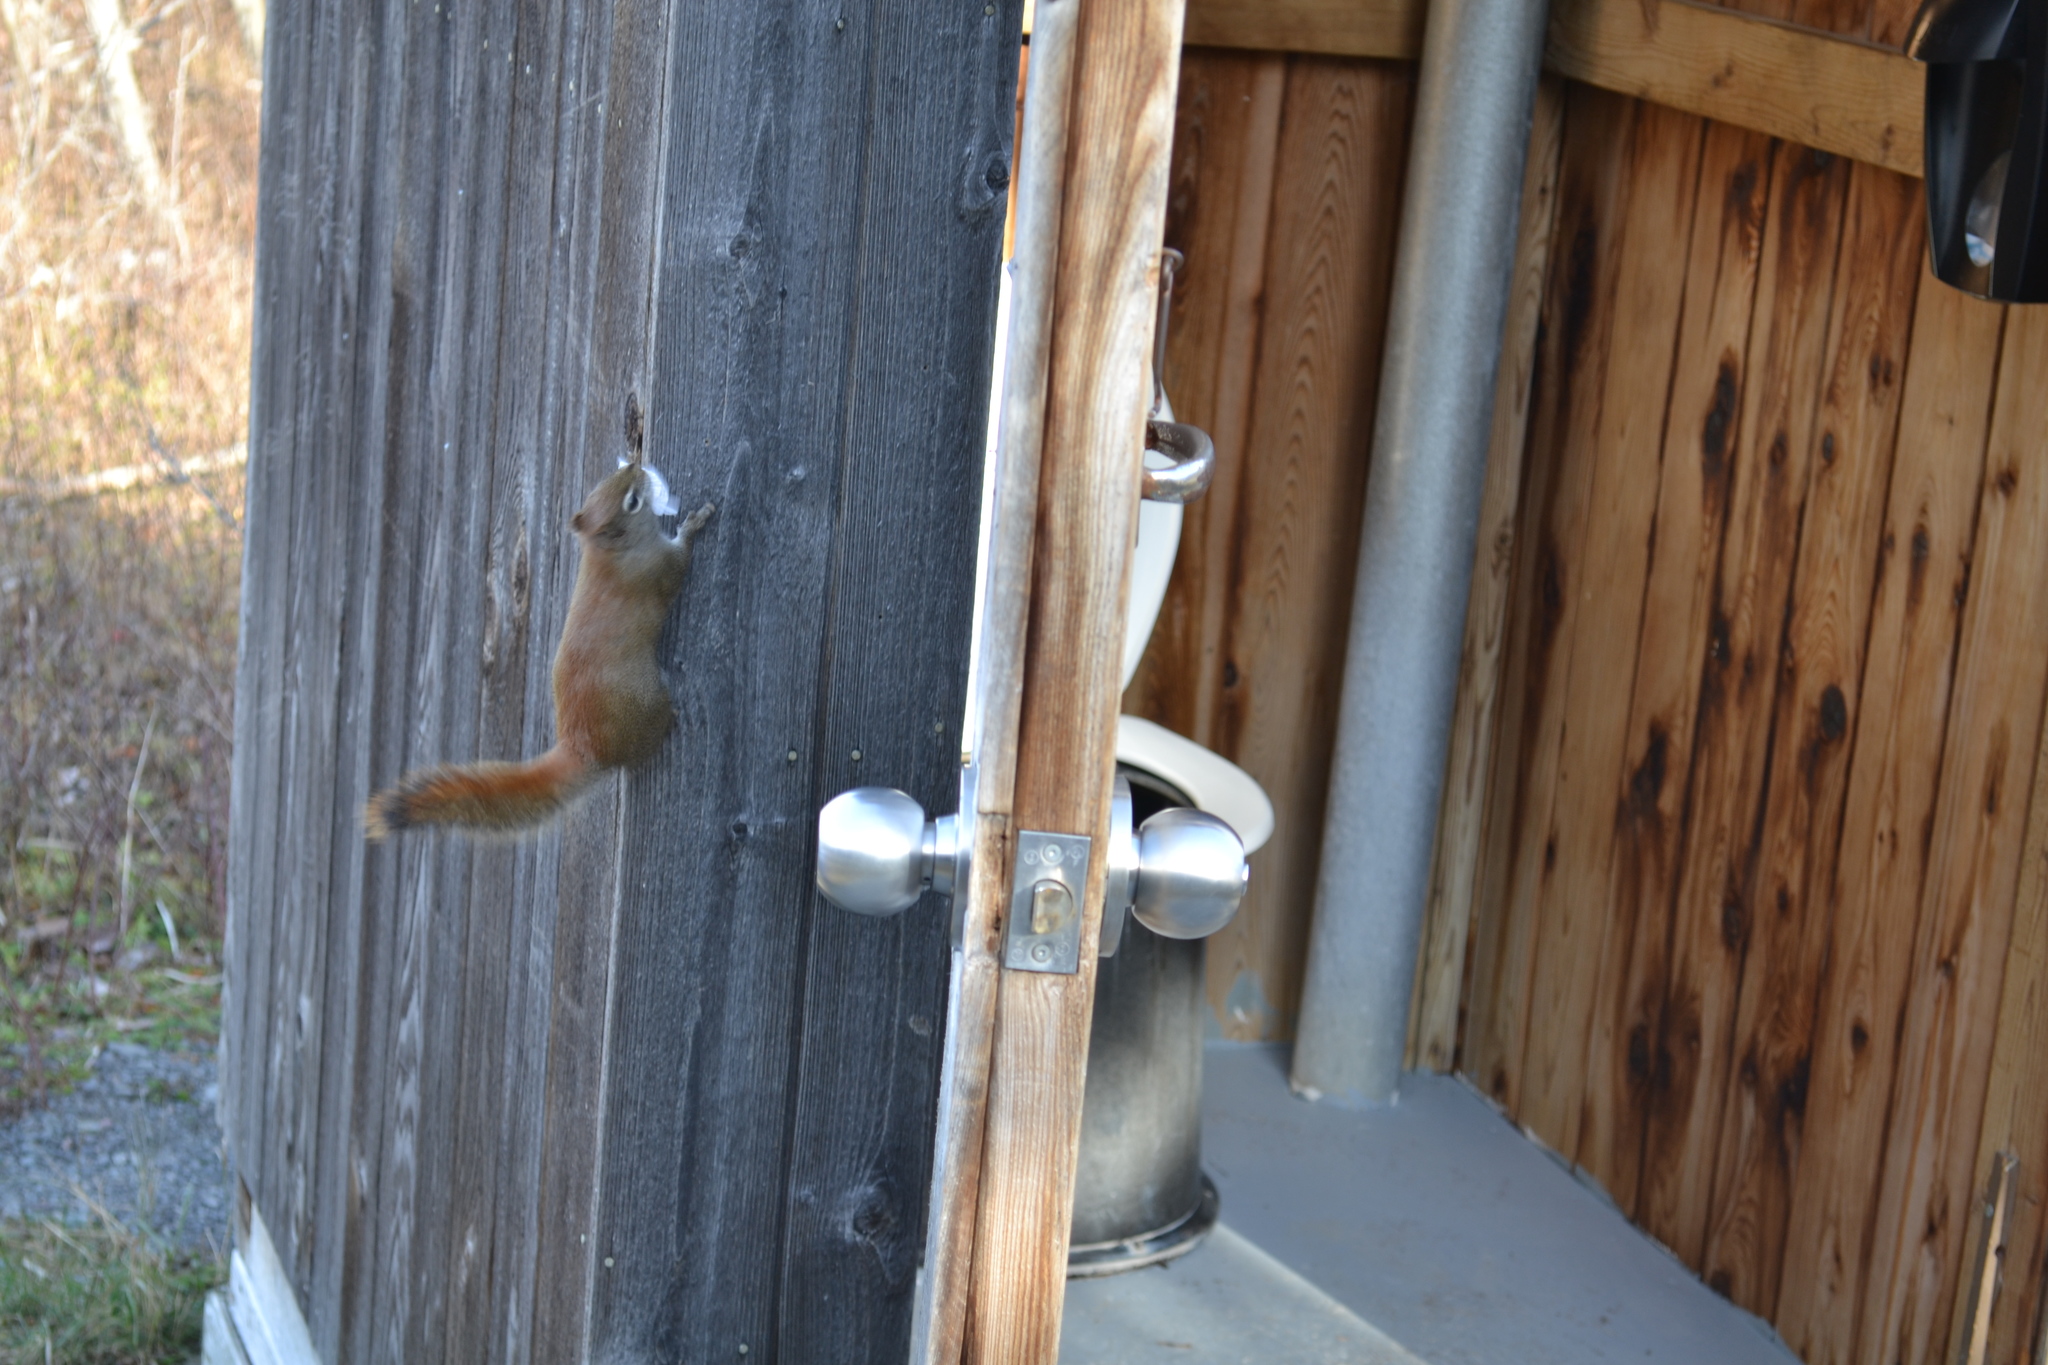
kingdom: Animalia
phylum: Chordata
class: Mammalia
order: Rodentia
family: Sciuridae
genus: Tamiasciurus
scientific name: Tamiasciurus hudsonicus
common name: Red squirrel
